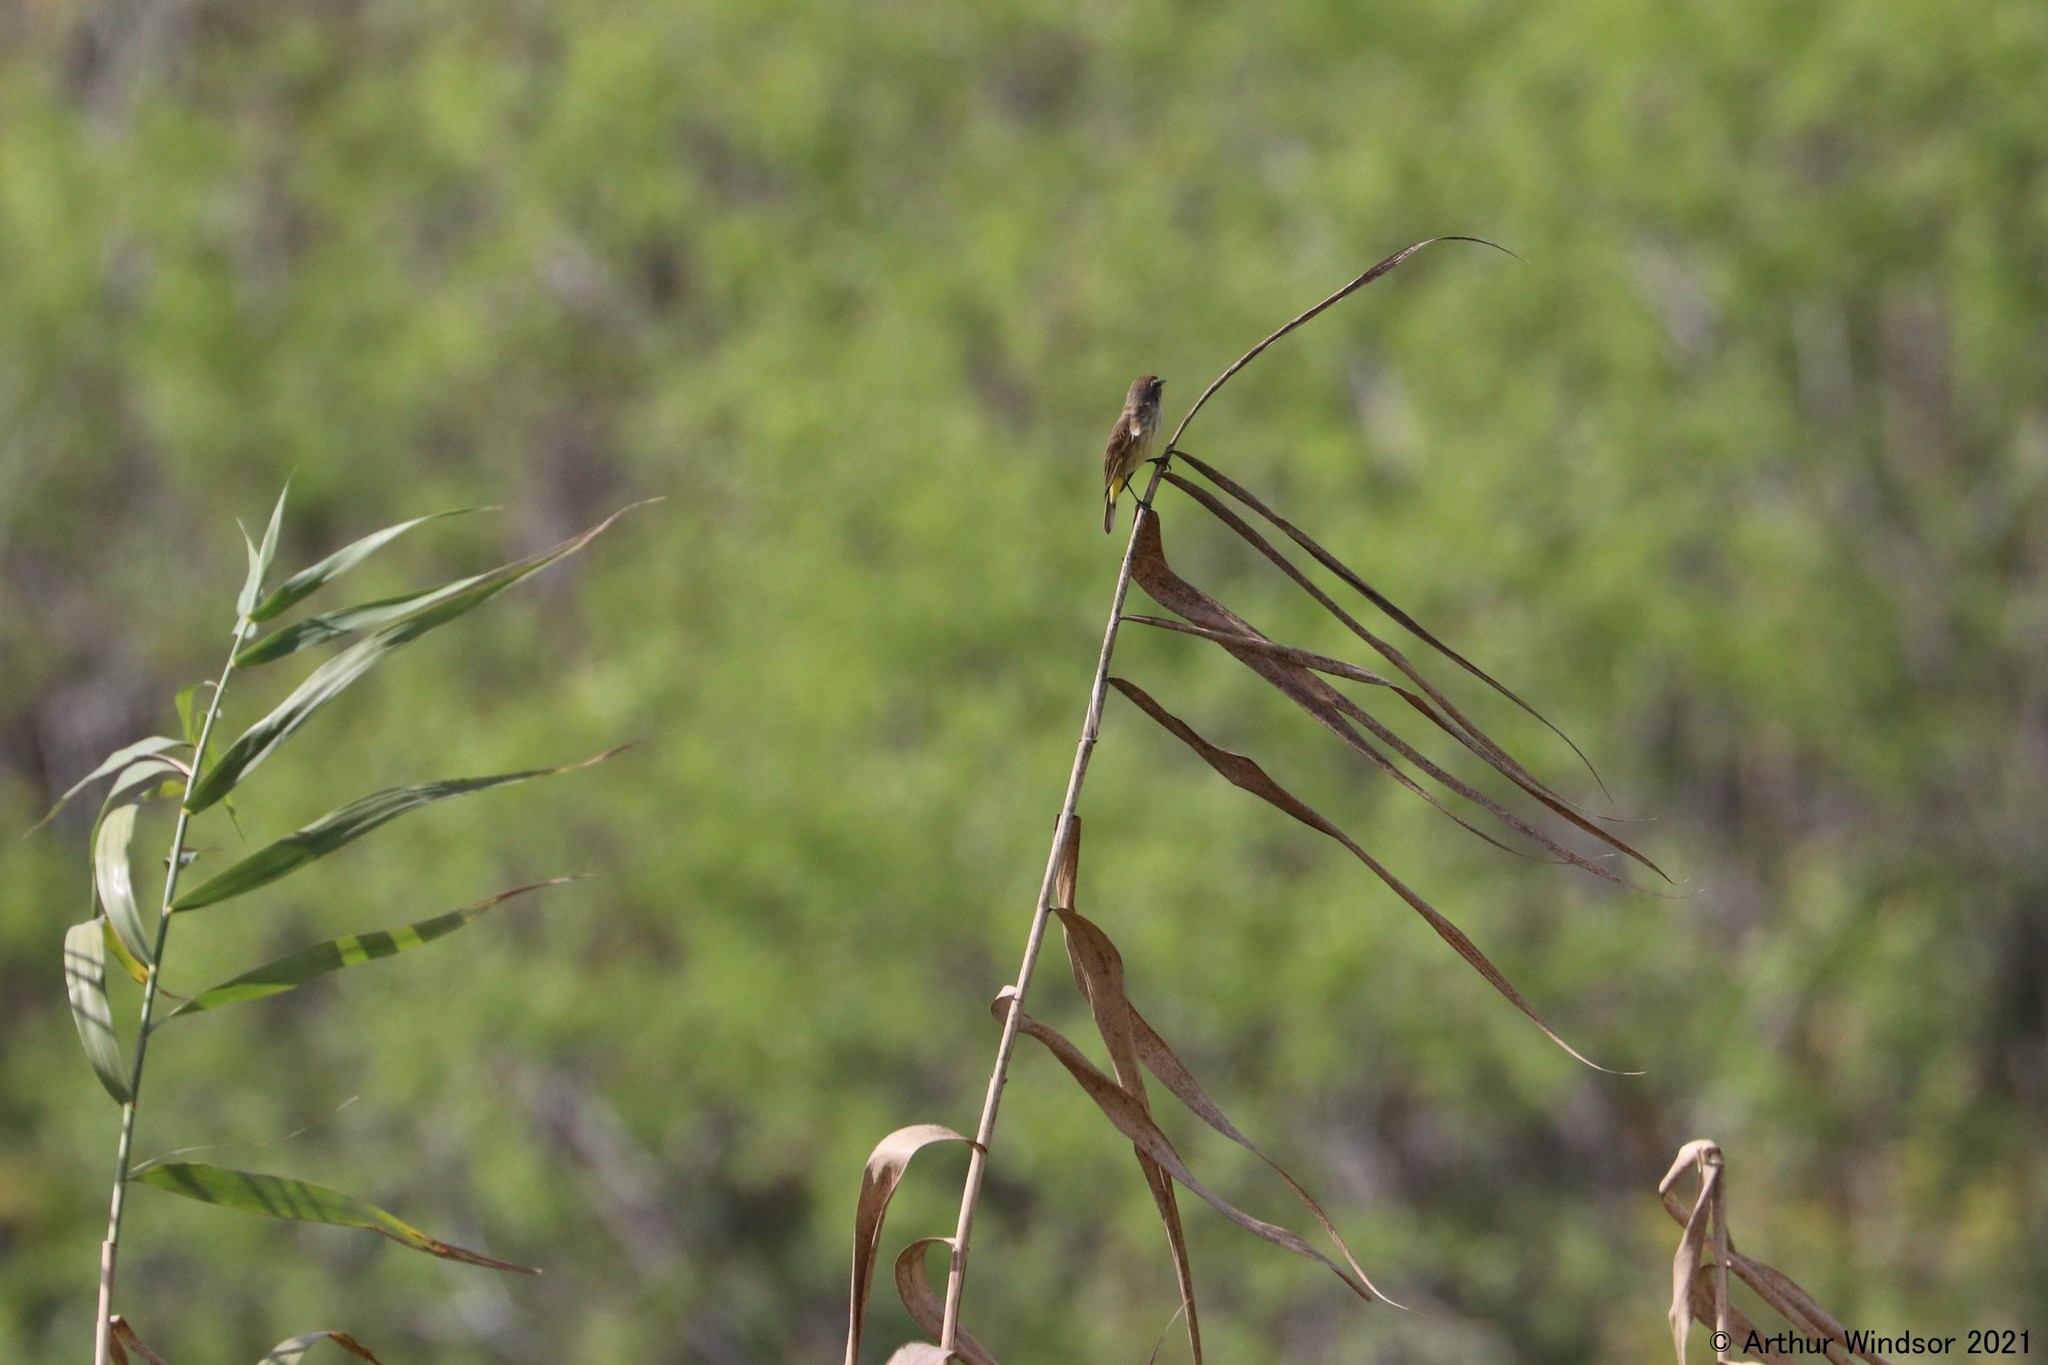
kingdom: Animalia
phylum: Chordata
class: Aves
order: Passeriformes
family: Parulidae
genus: Setophaga
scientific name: Setophaga palmarum
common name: Palm warbler
